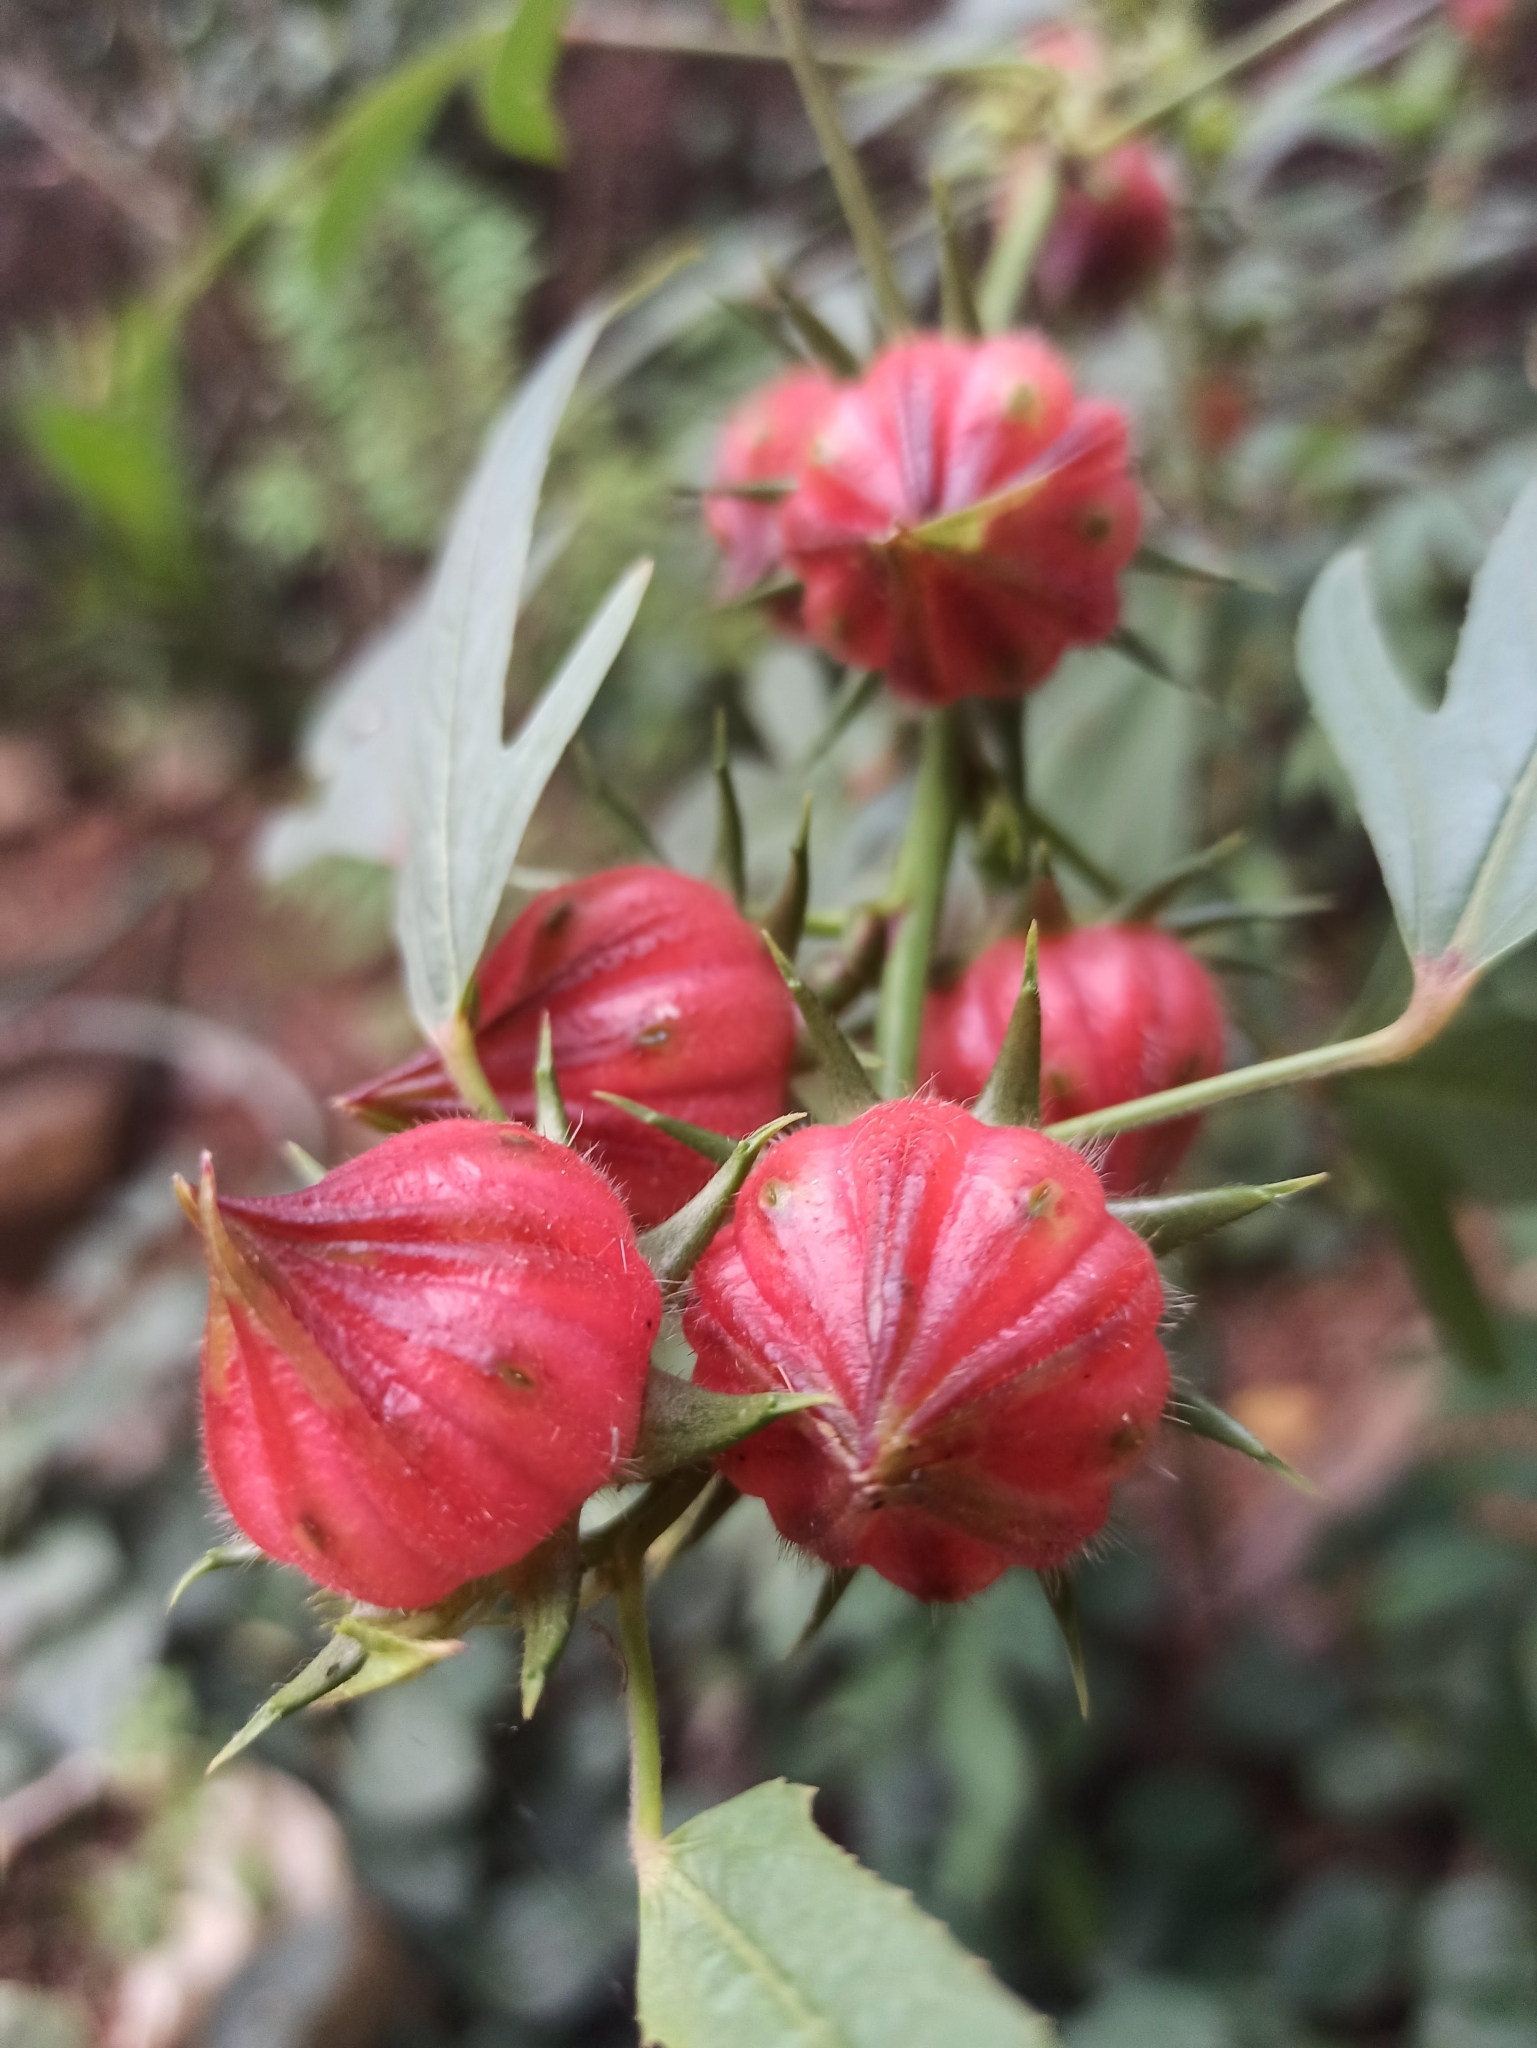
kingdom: Plantae
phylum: Tracheophyta
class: Magnoliopsida
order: Malvales
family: Malvaceae
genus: Hibiscus
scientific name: Hibiscus sabdariffa
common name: Roselle
